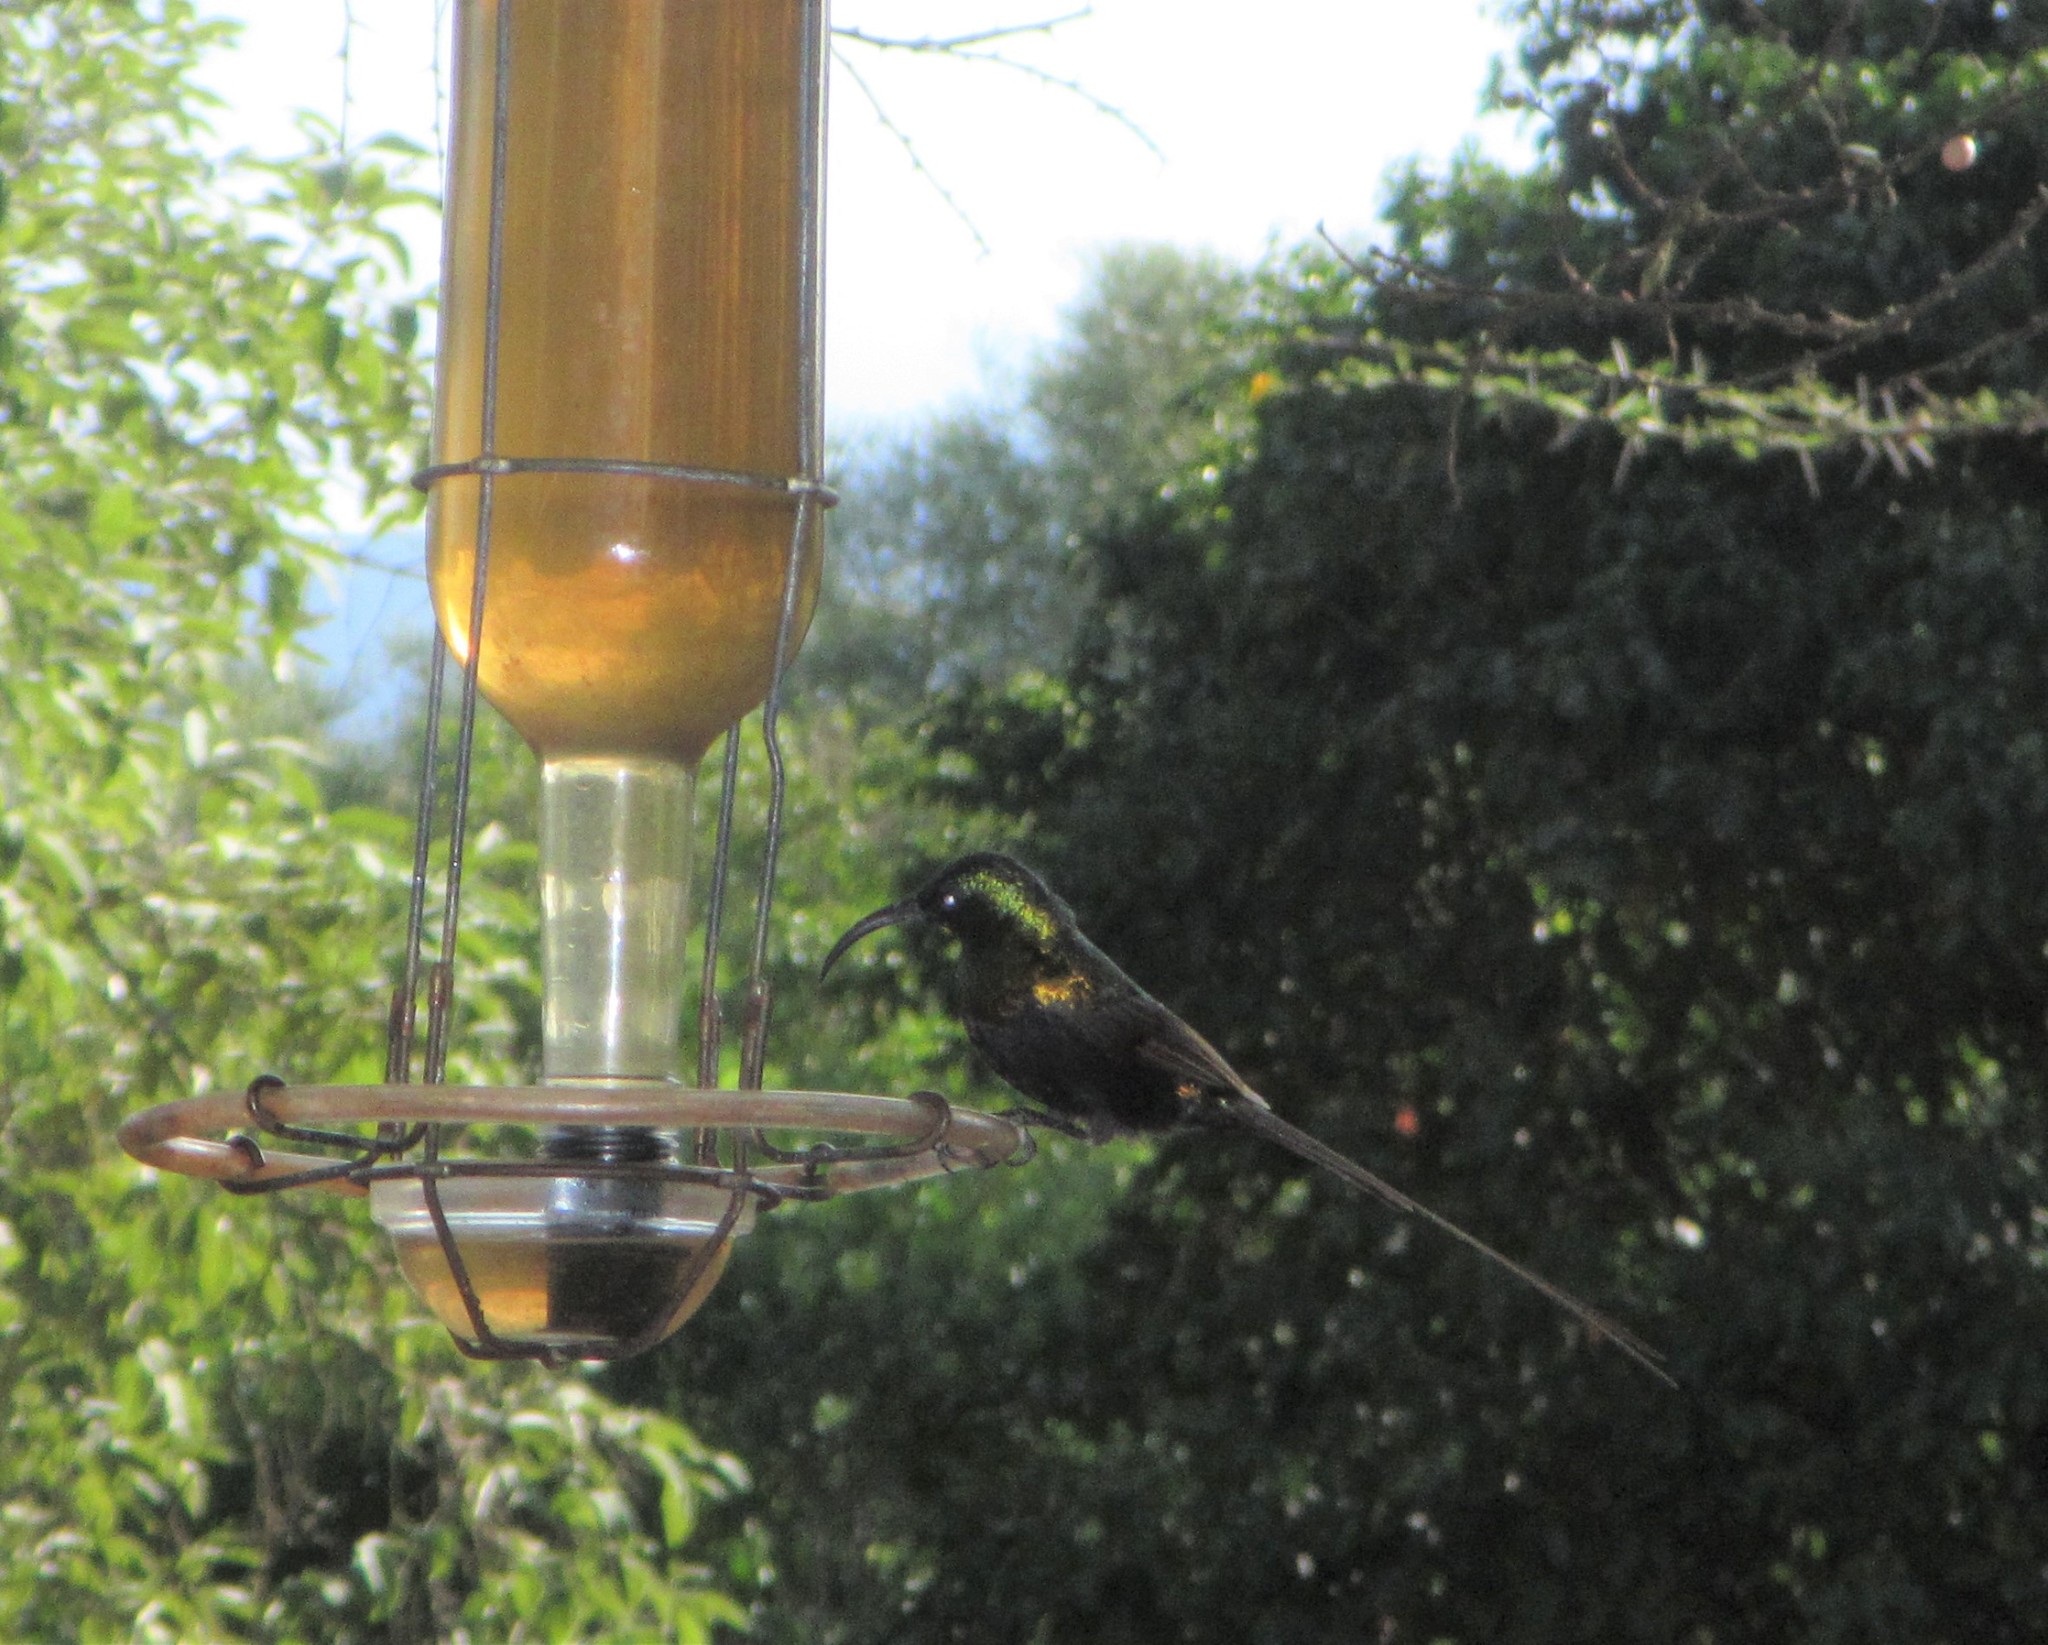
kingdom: Animalia
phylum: Chordata
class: Aves
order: Passeriformes
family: Nectariniidae
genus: Nectarinia
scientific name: Nectarinia kilimensis
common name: Bronzy sunbird
